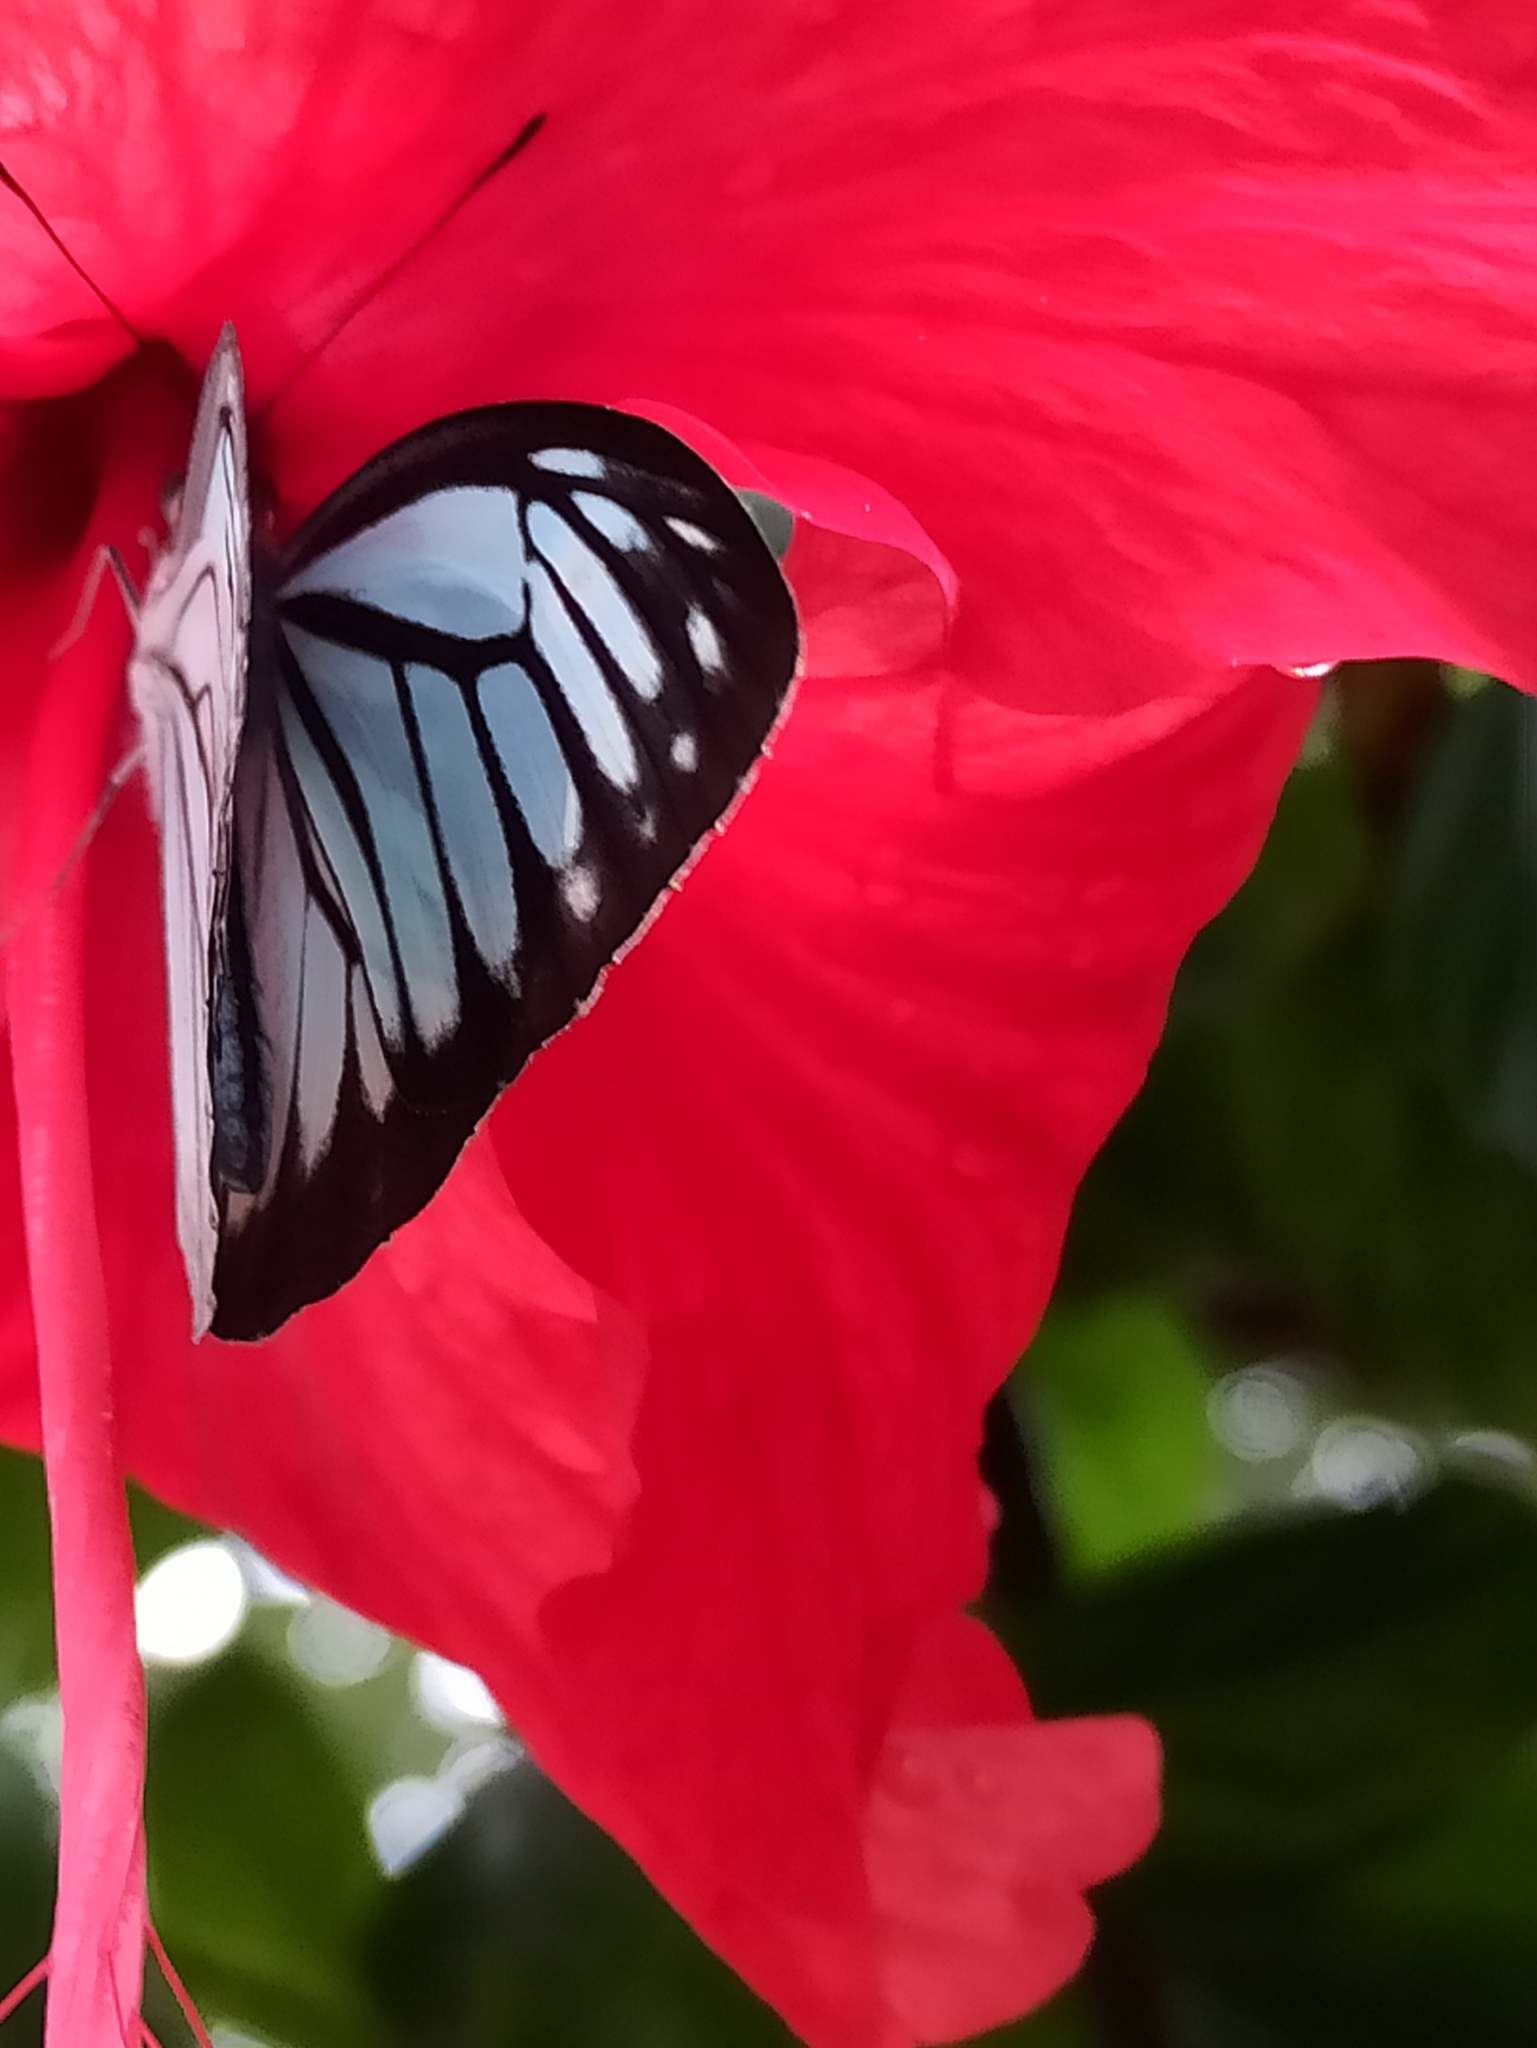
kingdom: Animalia
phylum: Arthropoda
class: Insecta
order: Lepidoptera
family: Pieridae
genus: Pareronia
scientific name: Pareronia hippia
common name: Indian wanderer
